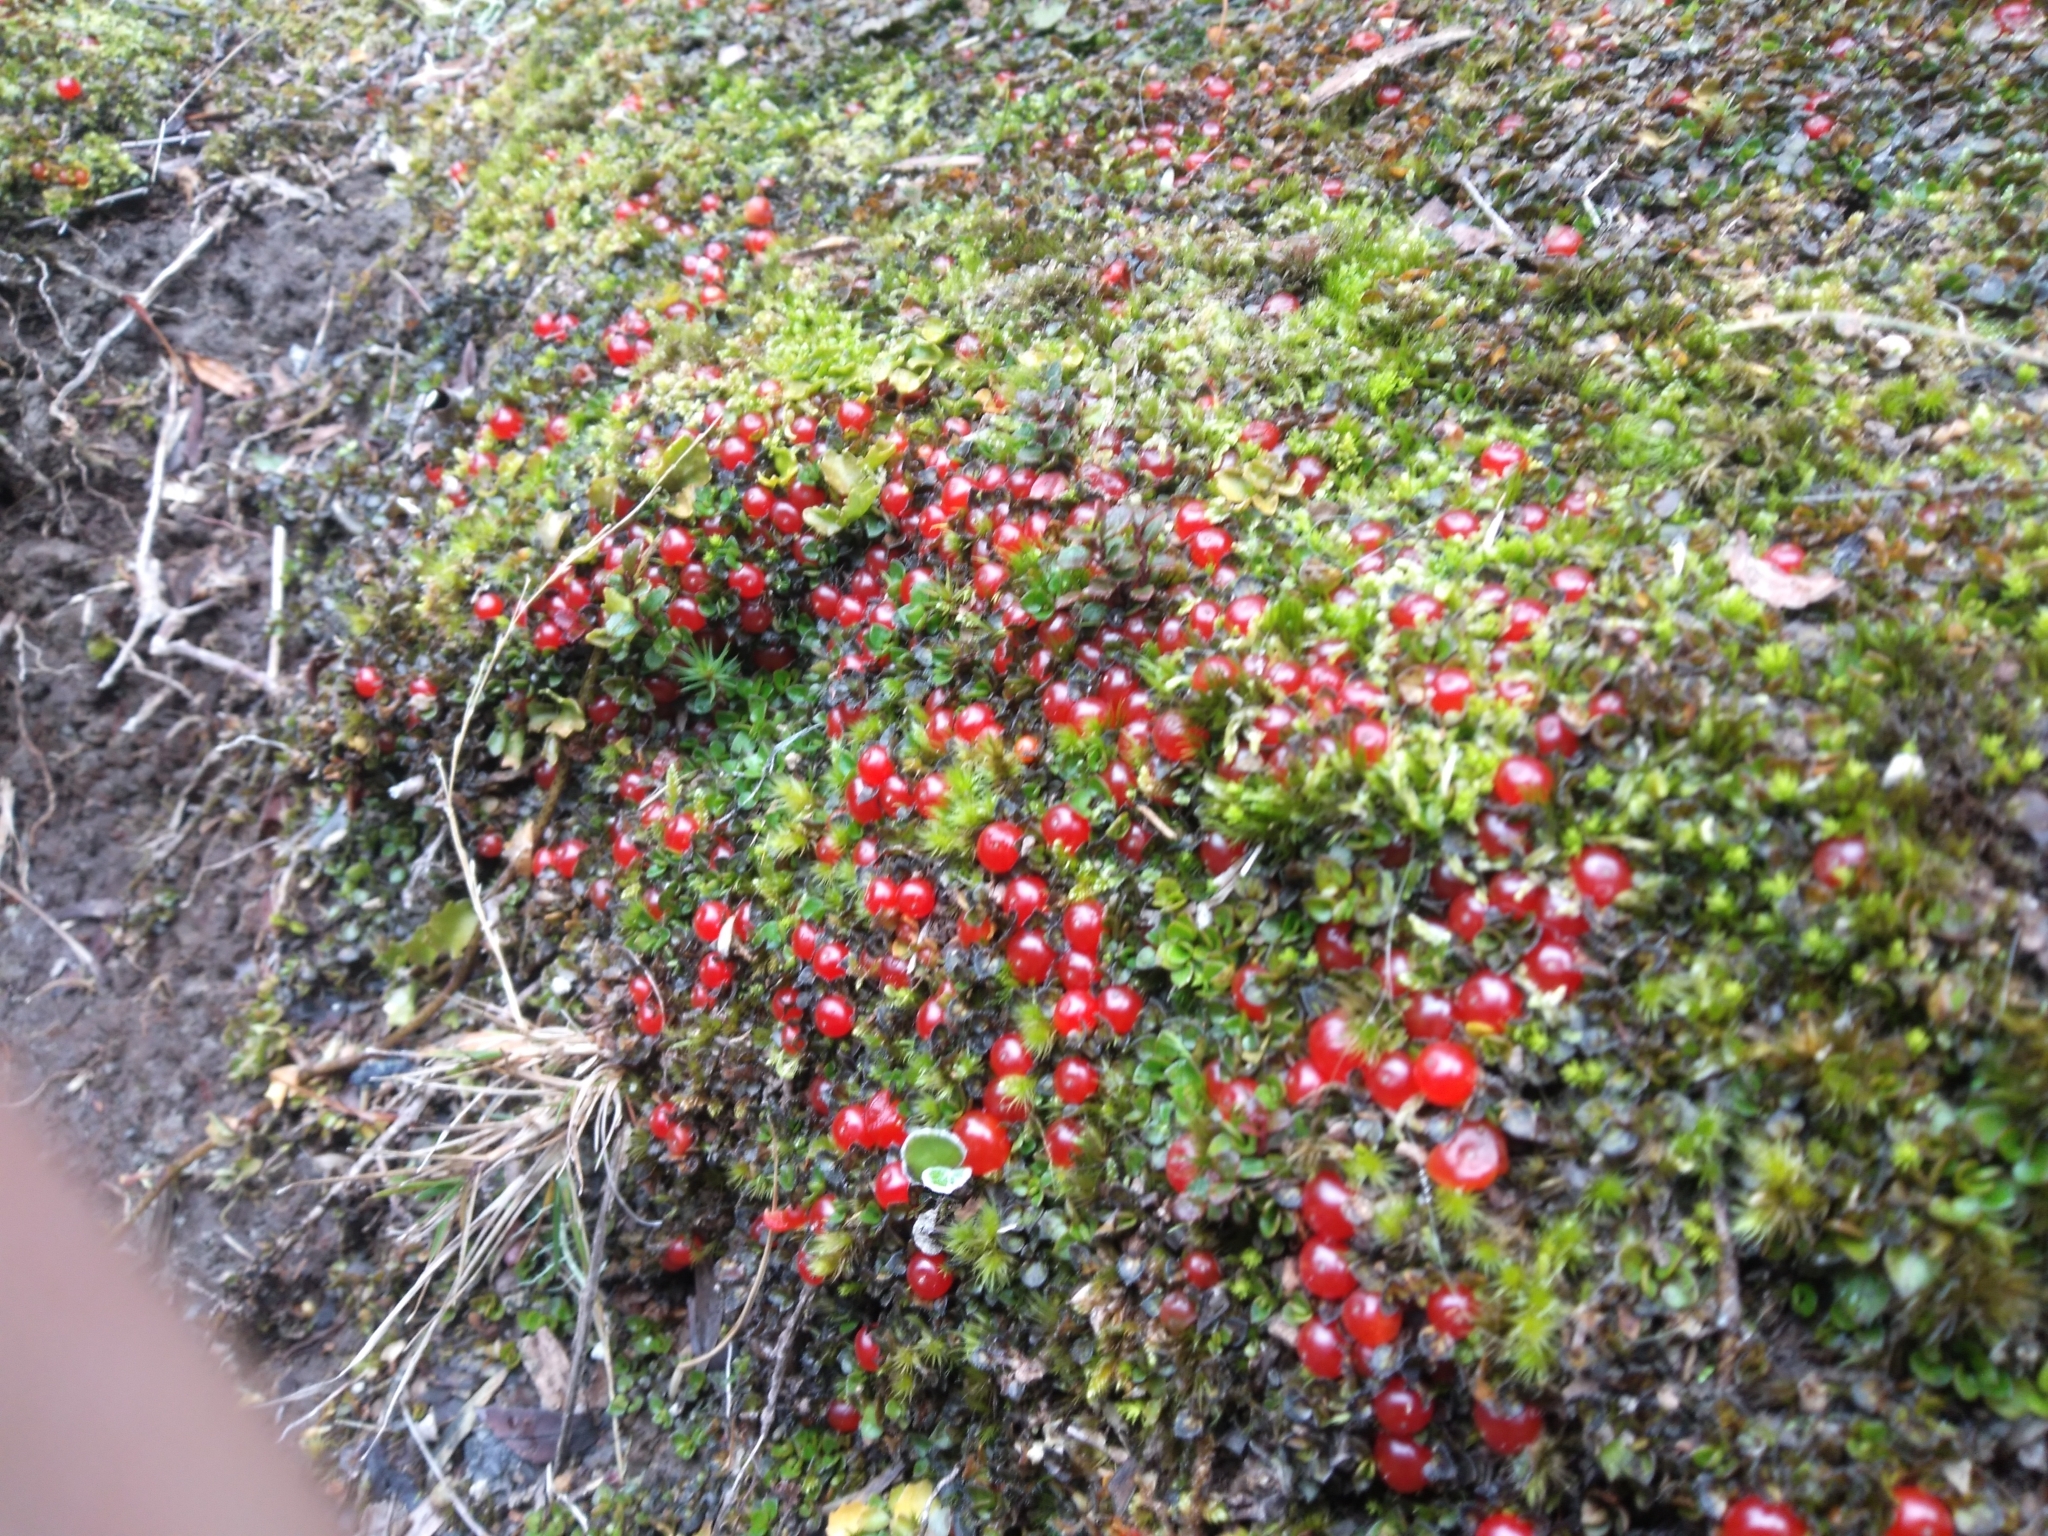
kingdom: Plantae
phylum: Tracheophyta
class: Magnoliopsida
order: Gentianales
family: Rubiaceae
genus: Nertera
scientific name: Nertera granadensis
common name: Beadplant
